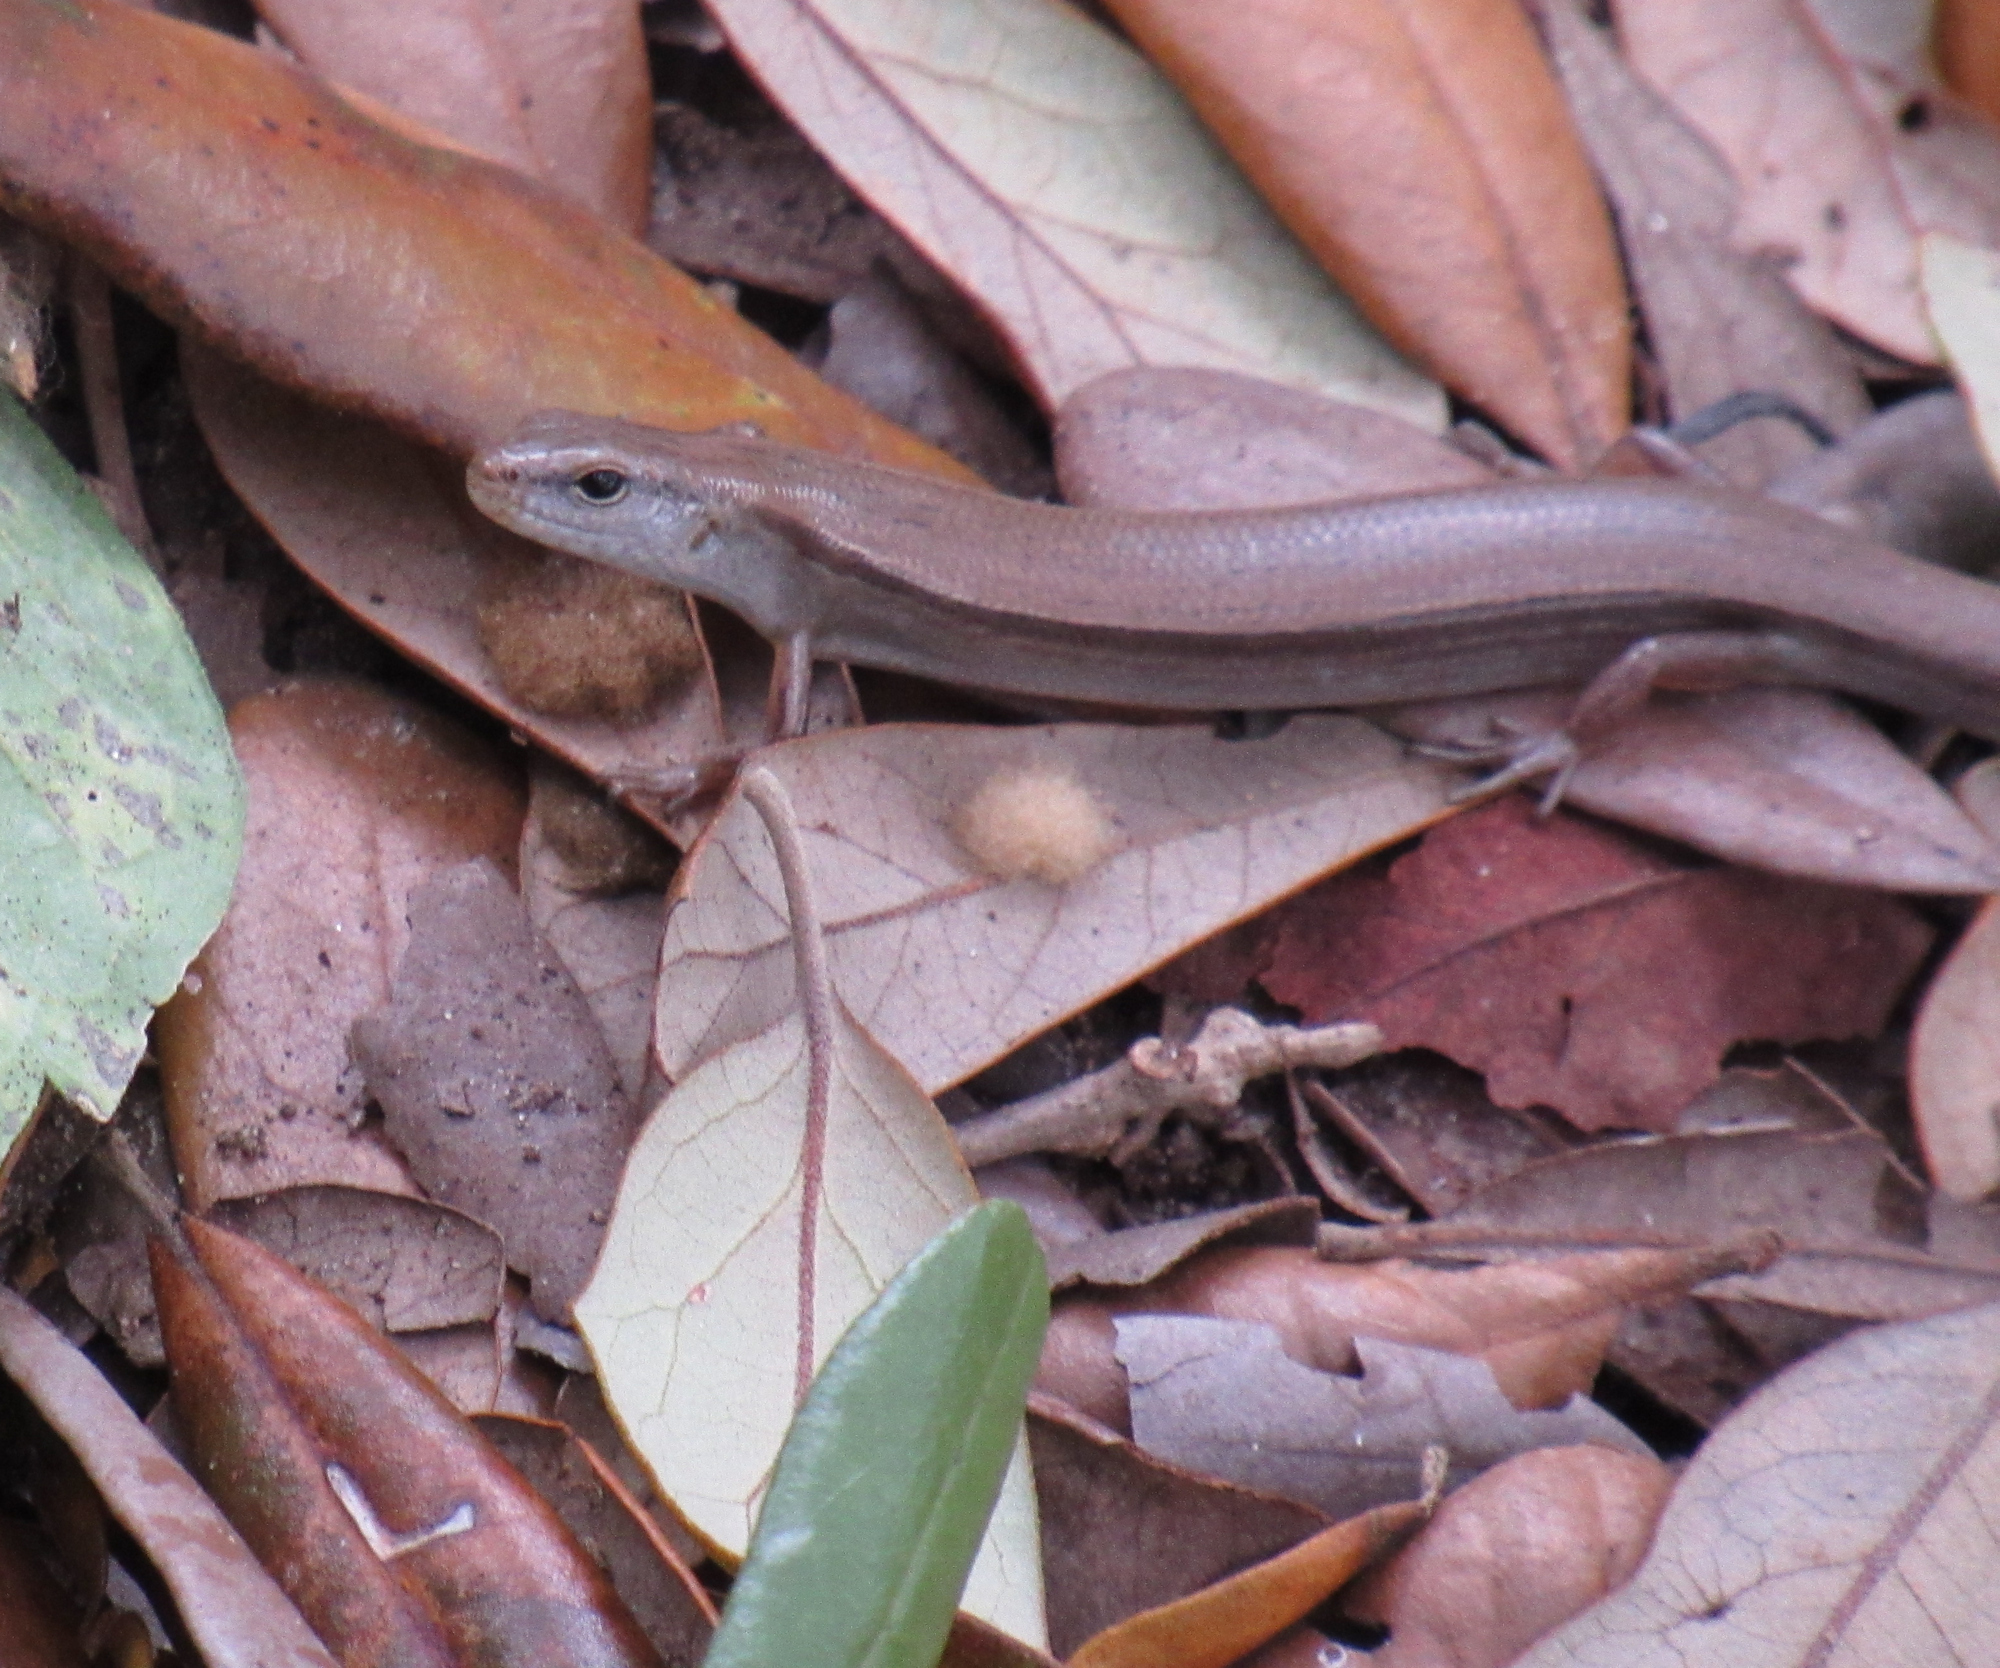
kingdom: Animalia
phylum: Chordata
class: Squamata
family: Scincidae
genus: Scincella
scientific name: Scincella lateralis
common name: Ground skink
